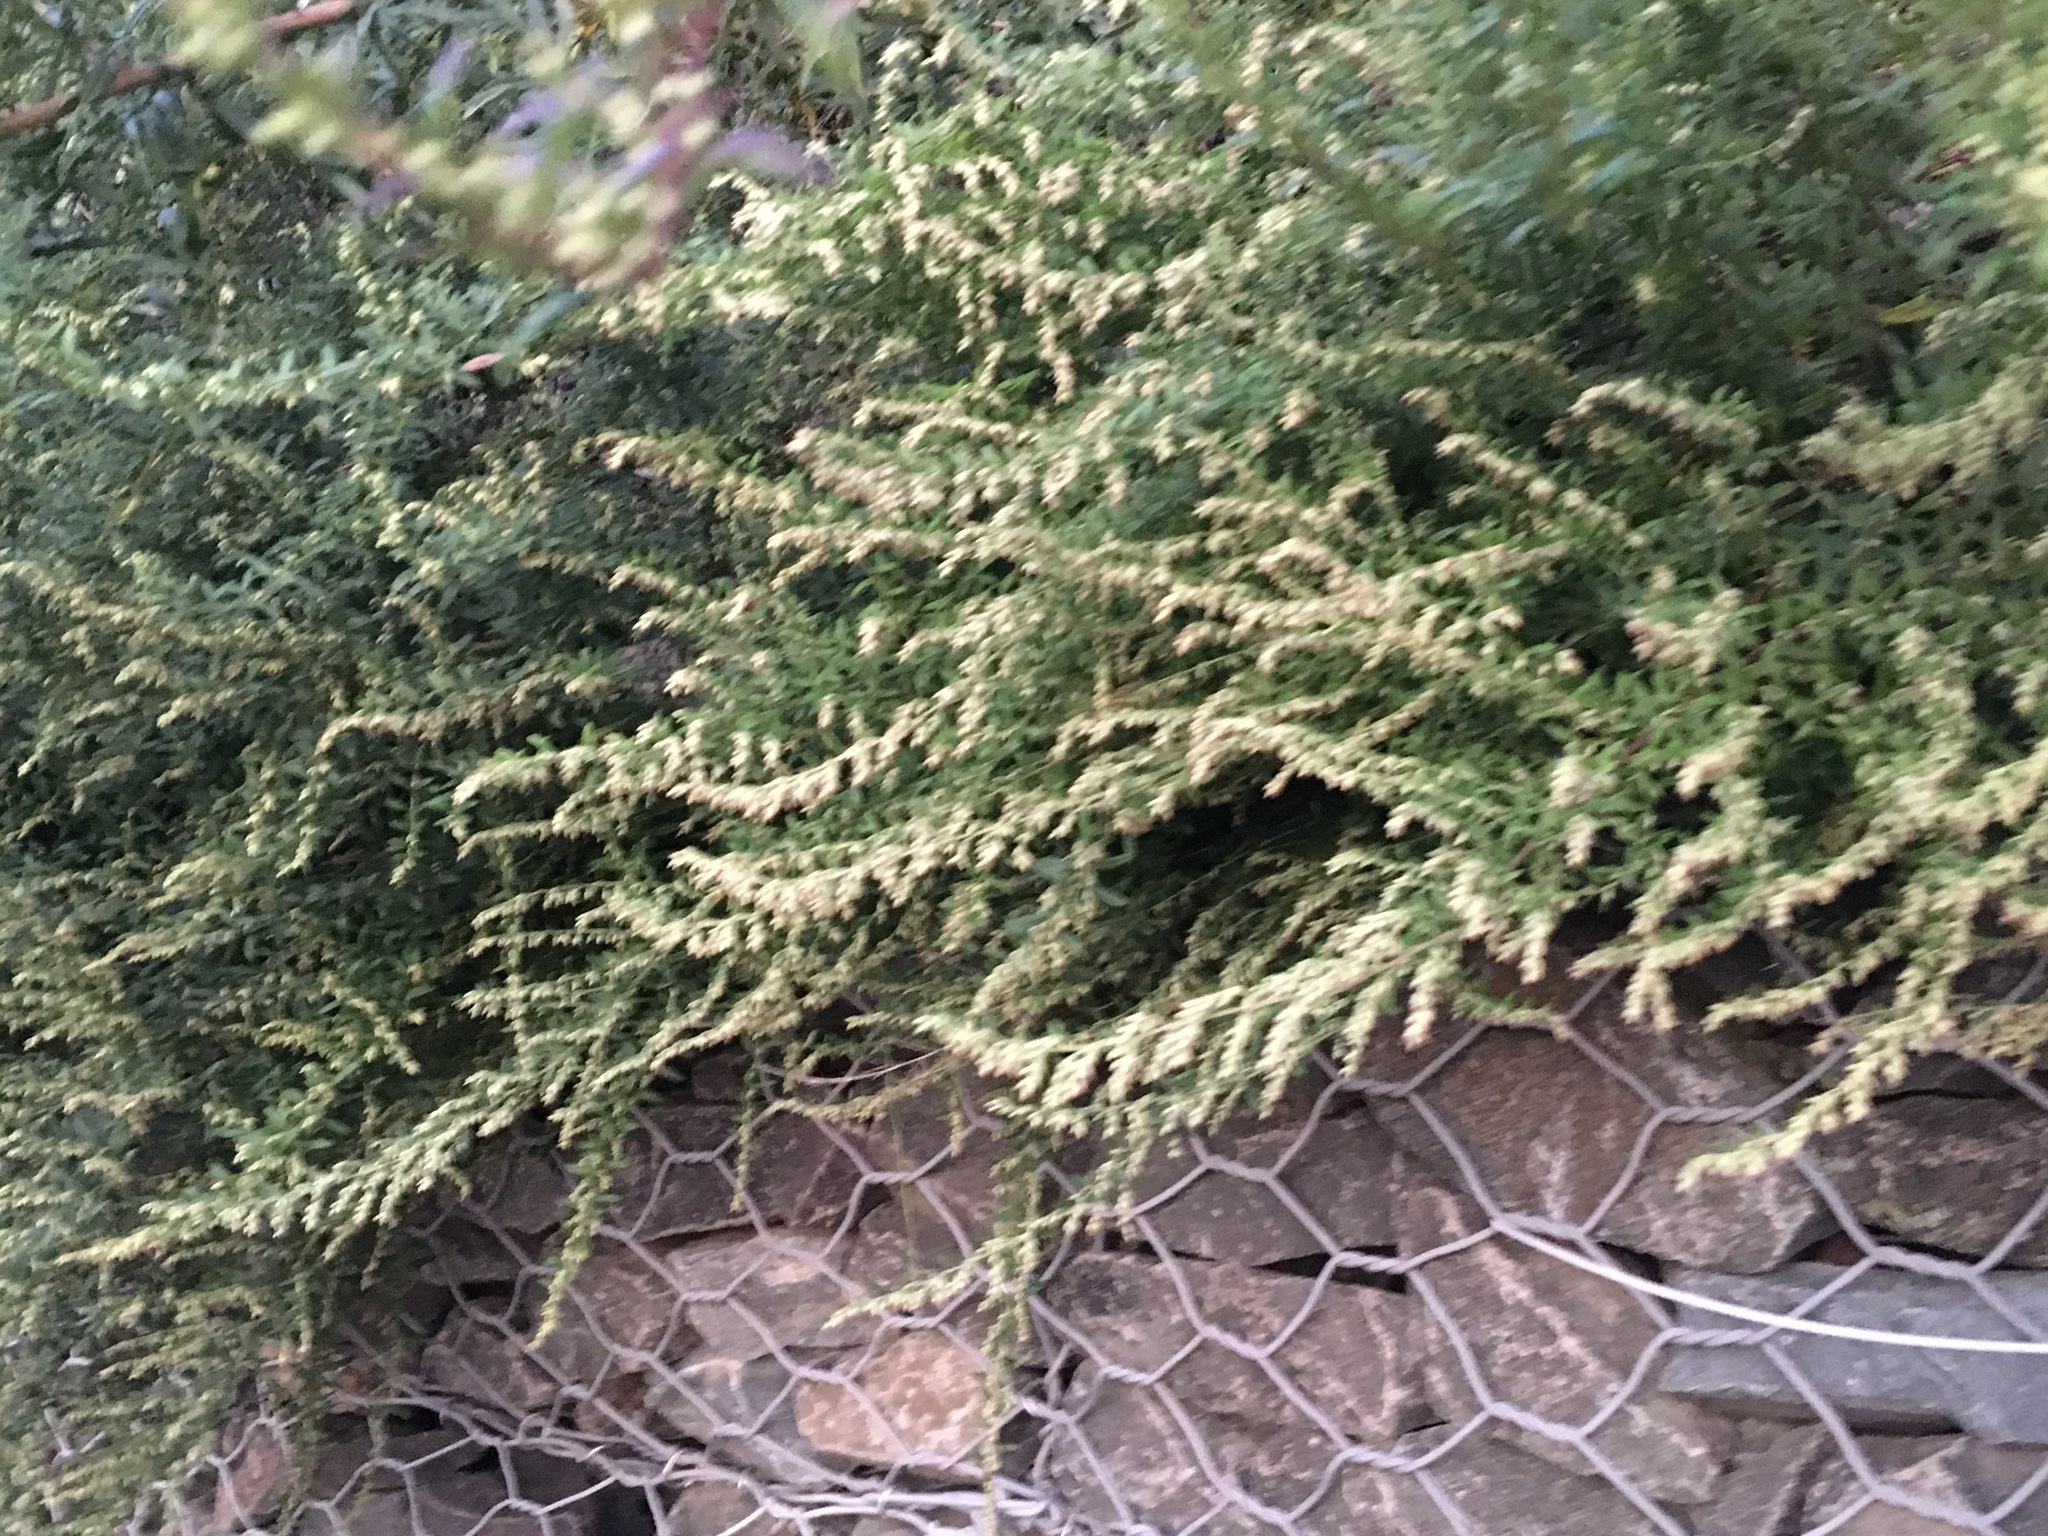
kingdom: Plantae
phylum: Tracheophyta
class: Magnoliopsida
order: Asterales
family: Asteraceae
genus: Artemisia
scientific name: Artemisia vulgaris
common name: Mugwort
